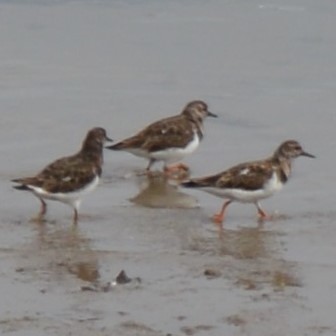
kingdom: Animalia
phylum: Chordata
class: Aves
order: Charadriiformes
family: Scolopacidae
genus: Arenaria
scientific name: Arenaria interpres
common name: Ruddy turnstone
